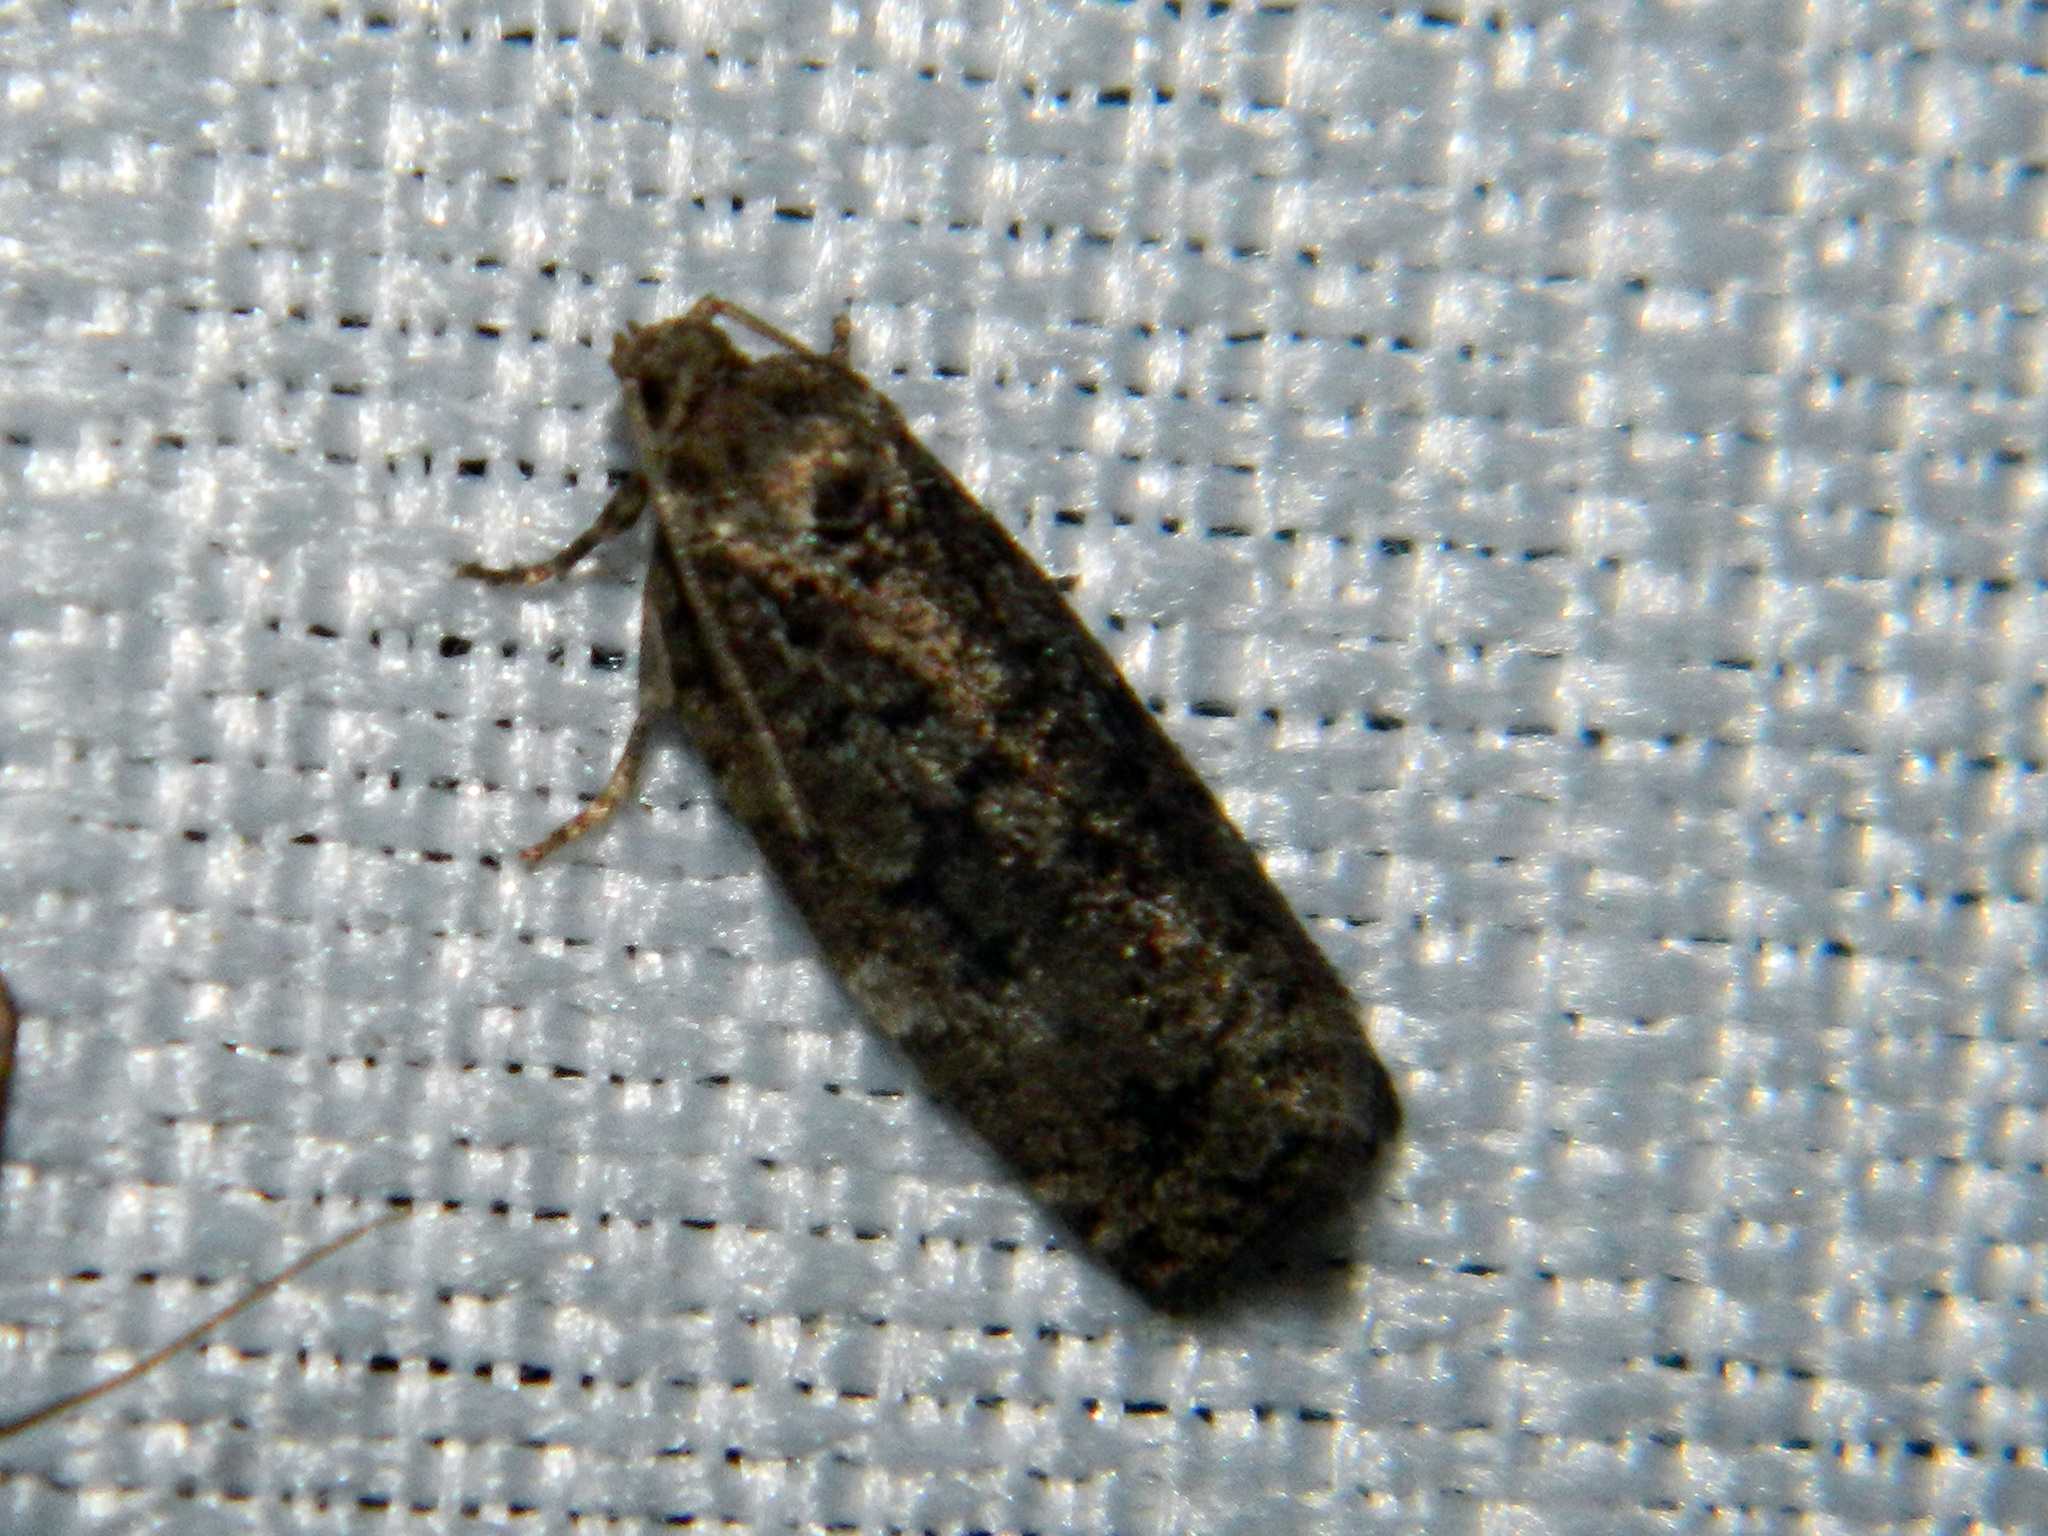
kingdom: Animalia
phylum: Arthropoda
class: Insecta
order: Lepidoptera
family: Tortricidae
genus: Choristoneura
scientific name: Choristoneura fumiferana
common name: Spruce budworm
